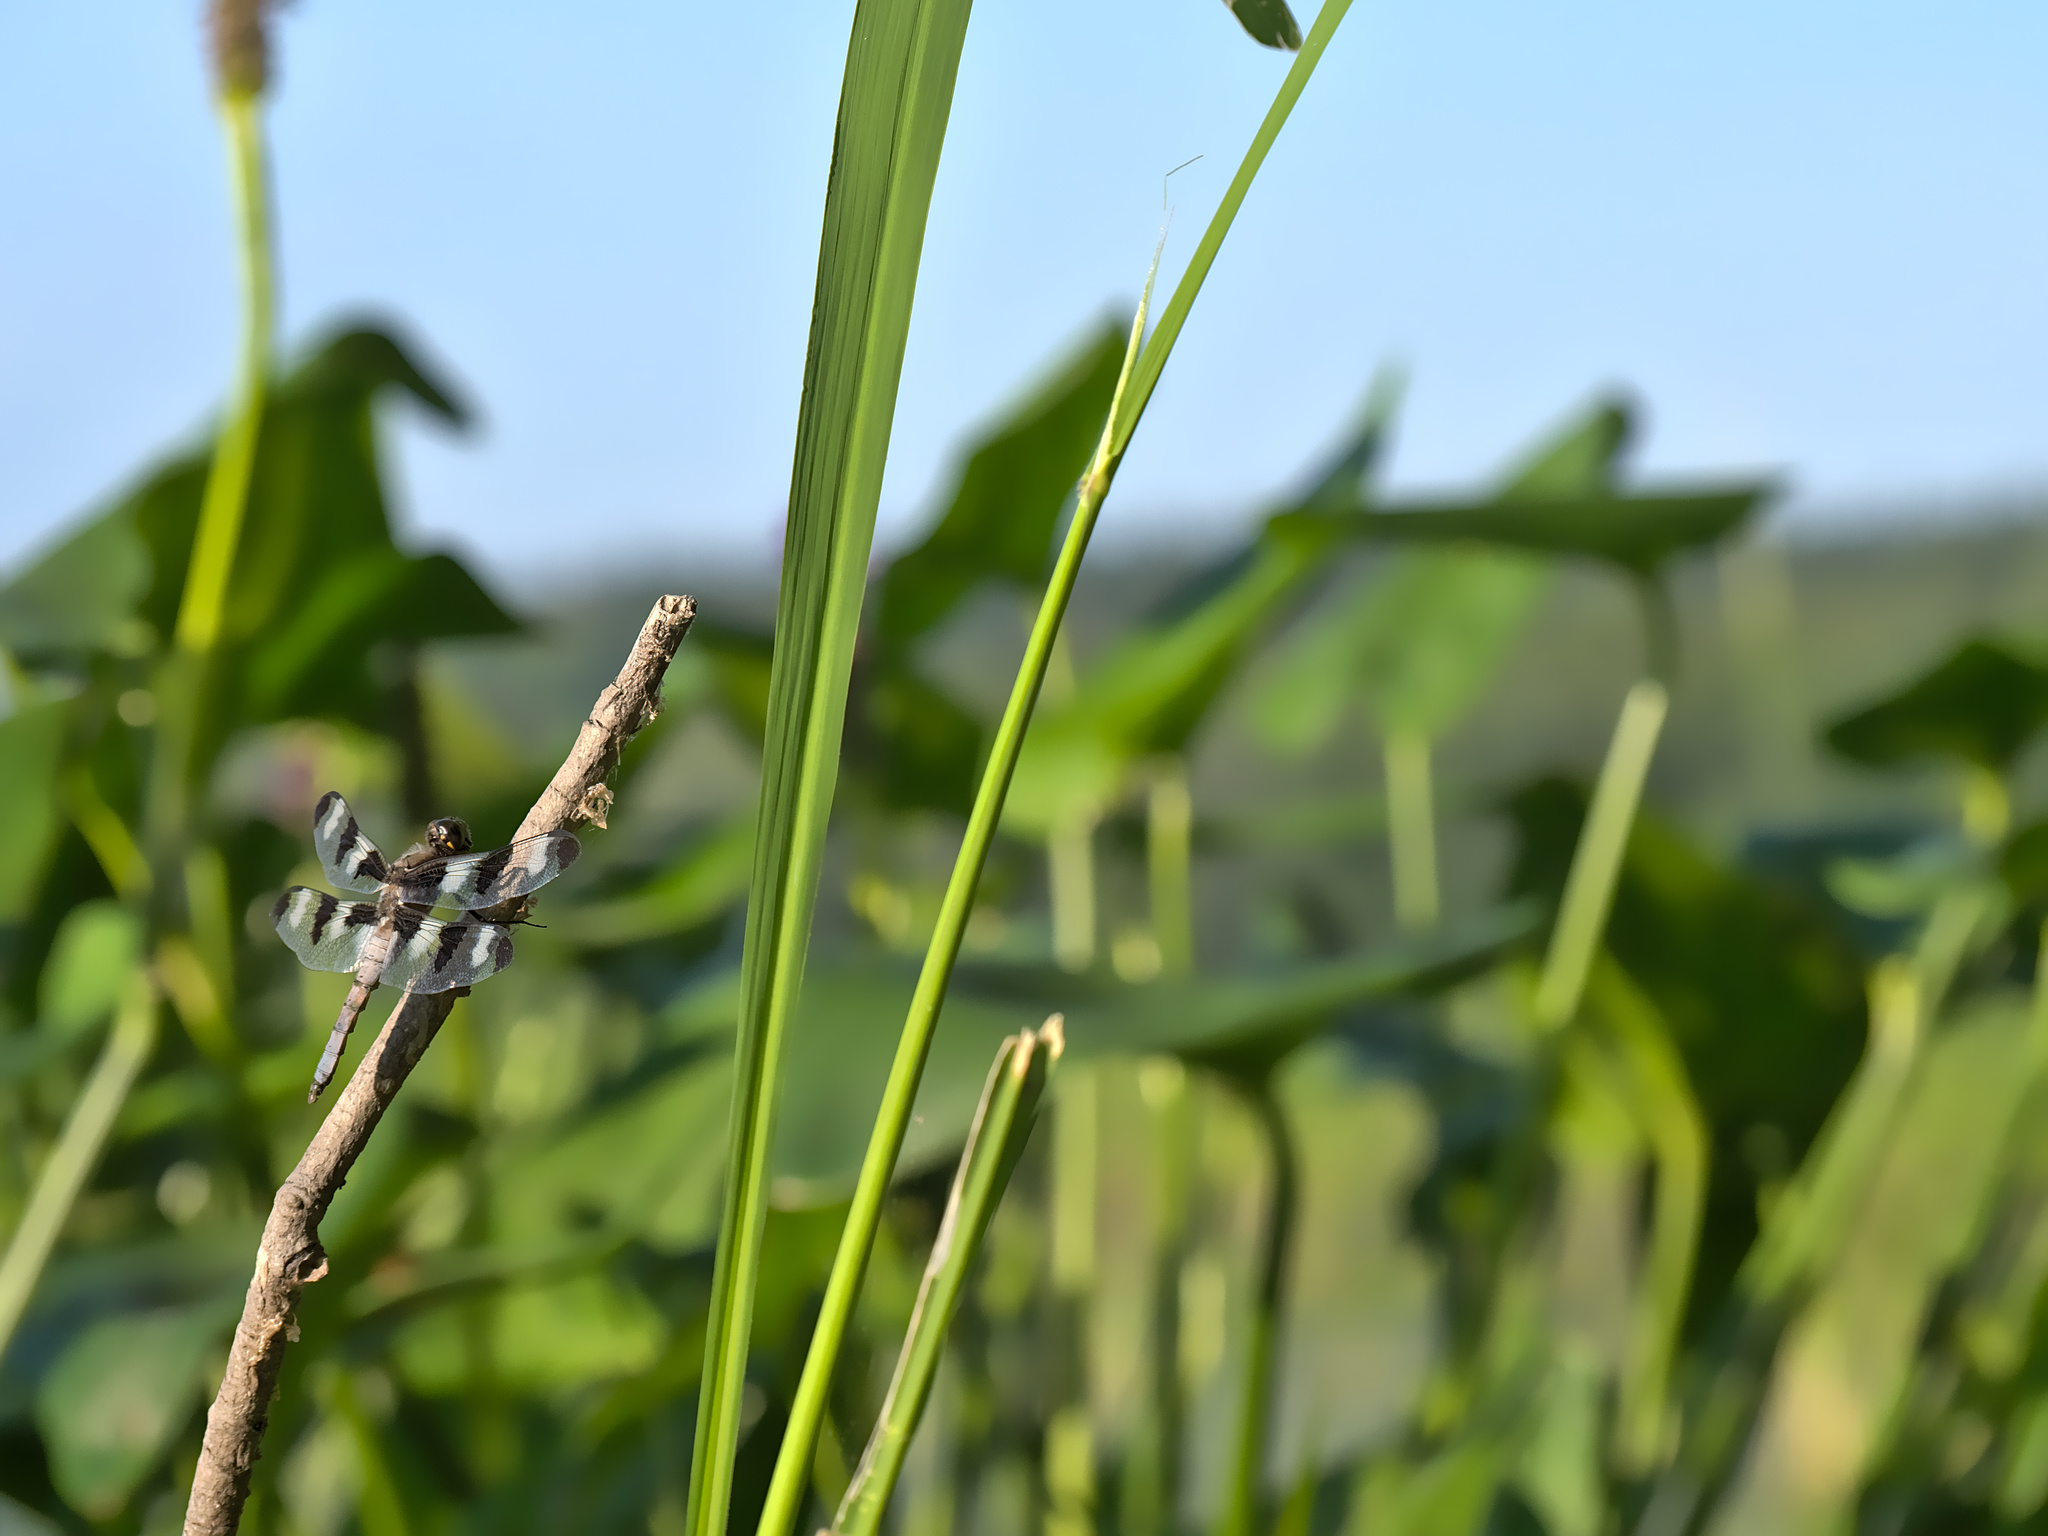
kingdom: Animalia
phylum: Arthropoda
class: Insecta
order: Odonata
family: Libellulidae
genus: Libellula
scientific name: Libellula pulchella
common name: Twelve-spotted skimmer
